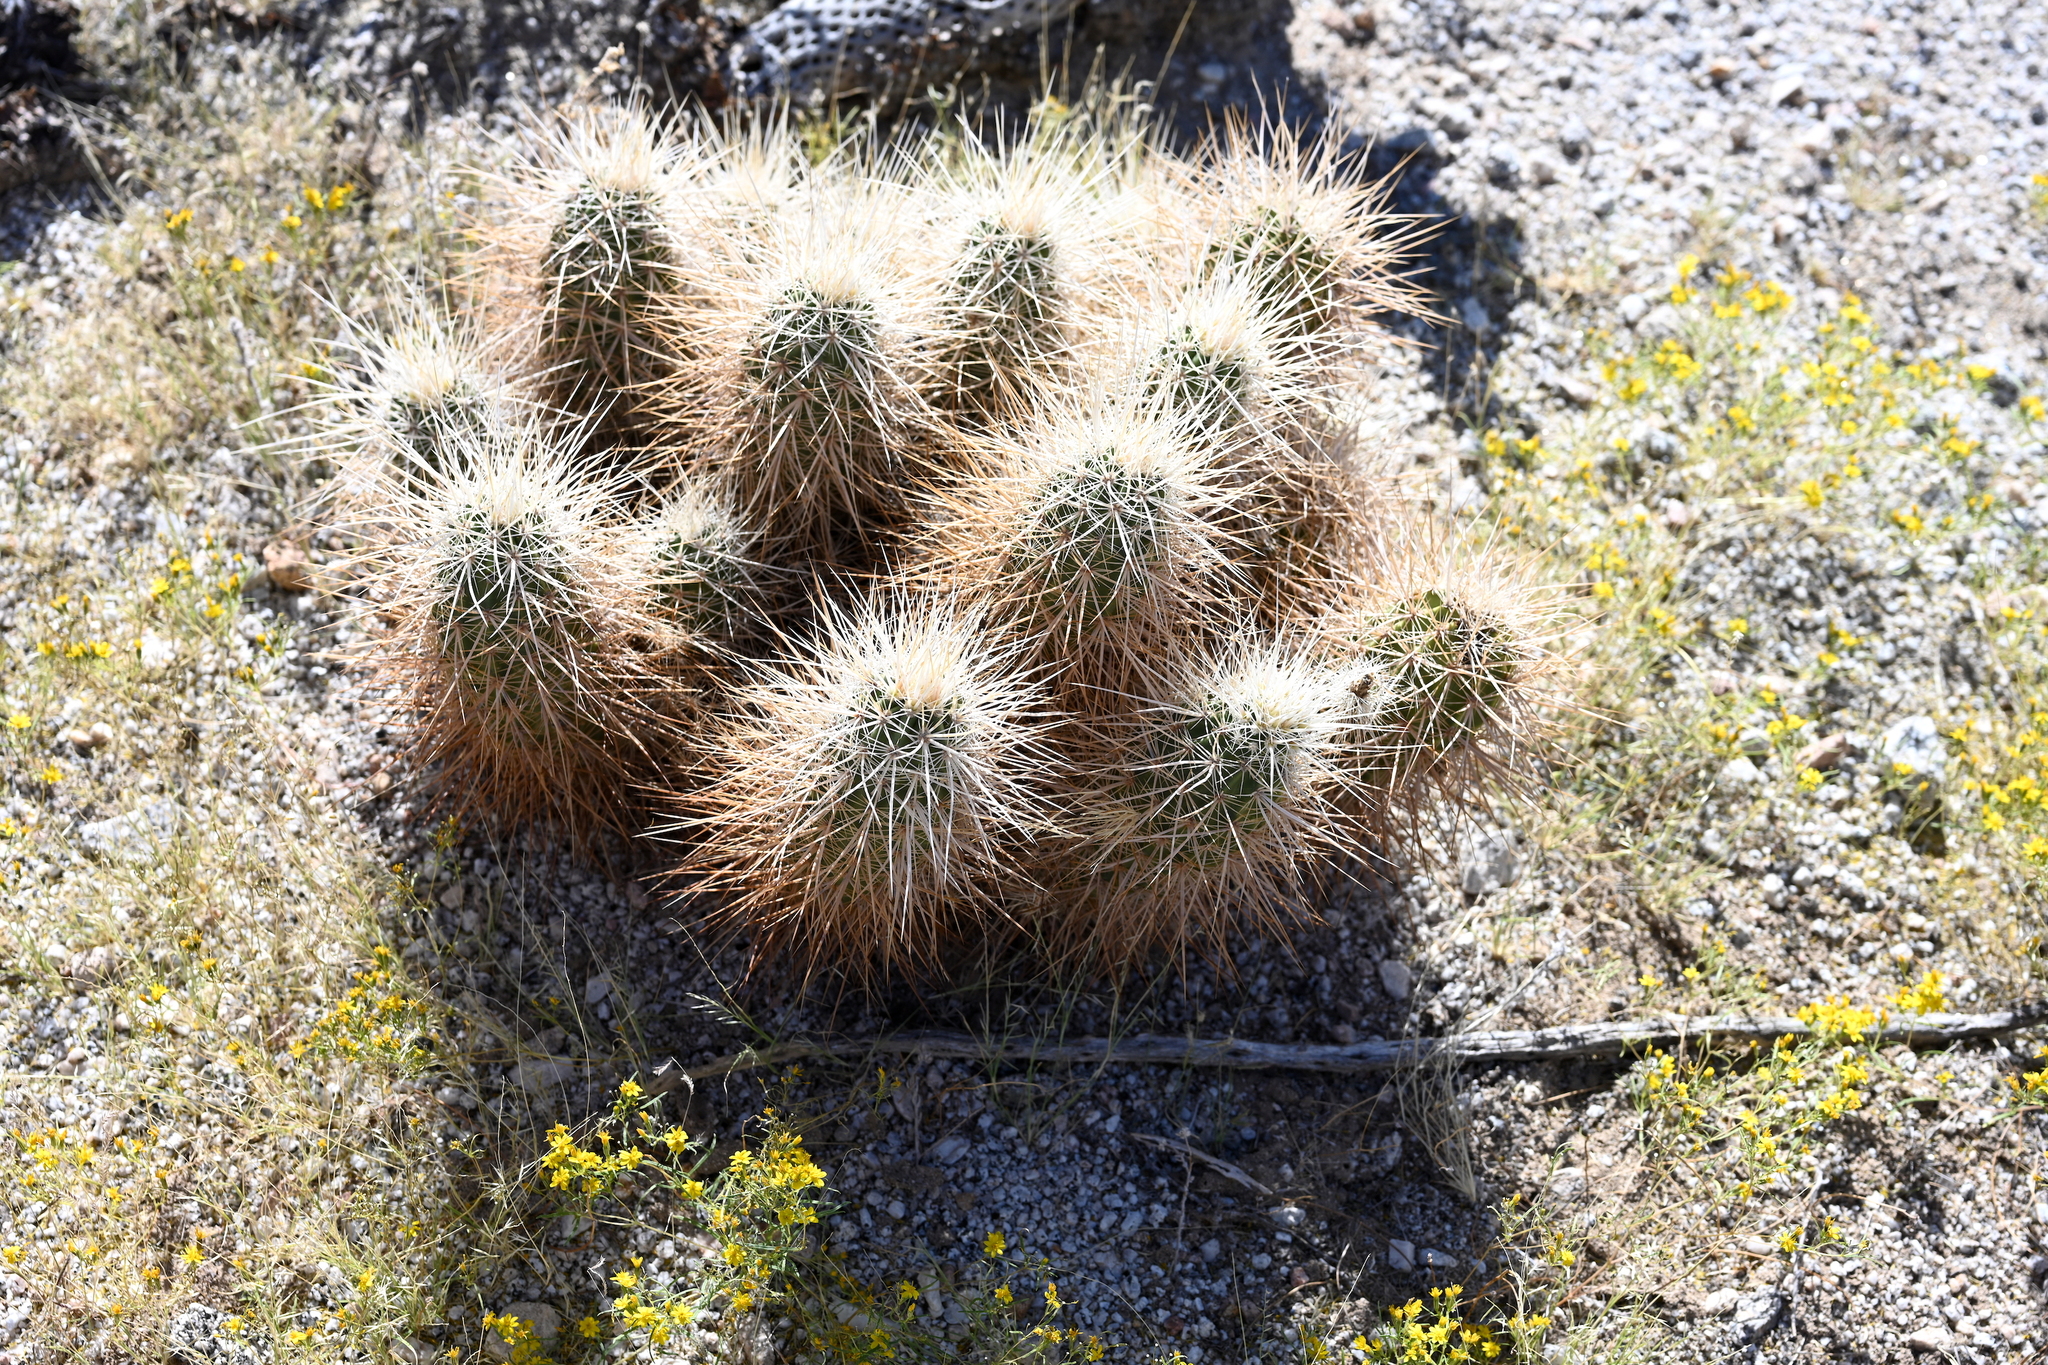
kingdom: Plantae
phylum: Tracheophyta
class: Magnoliopsida
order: Caryophyllales
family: Cactaceae
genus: Echinocereus
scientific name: Echinocereus engelmannii
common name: Engelmann's hedgehog cactus
